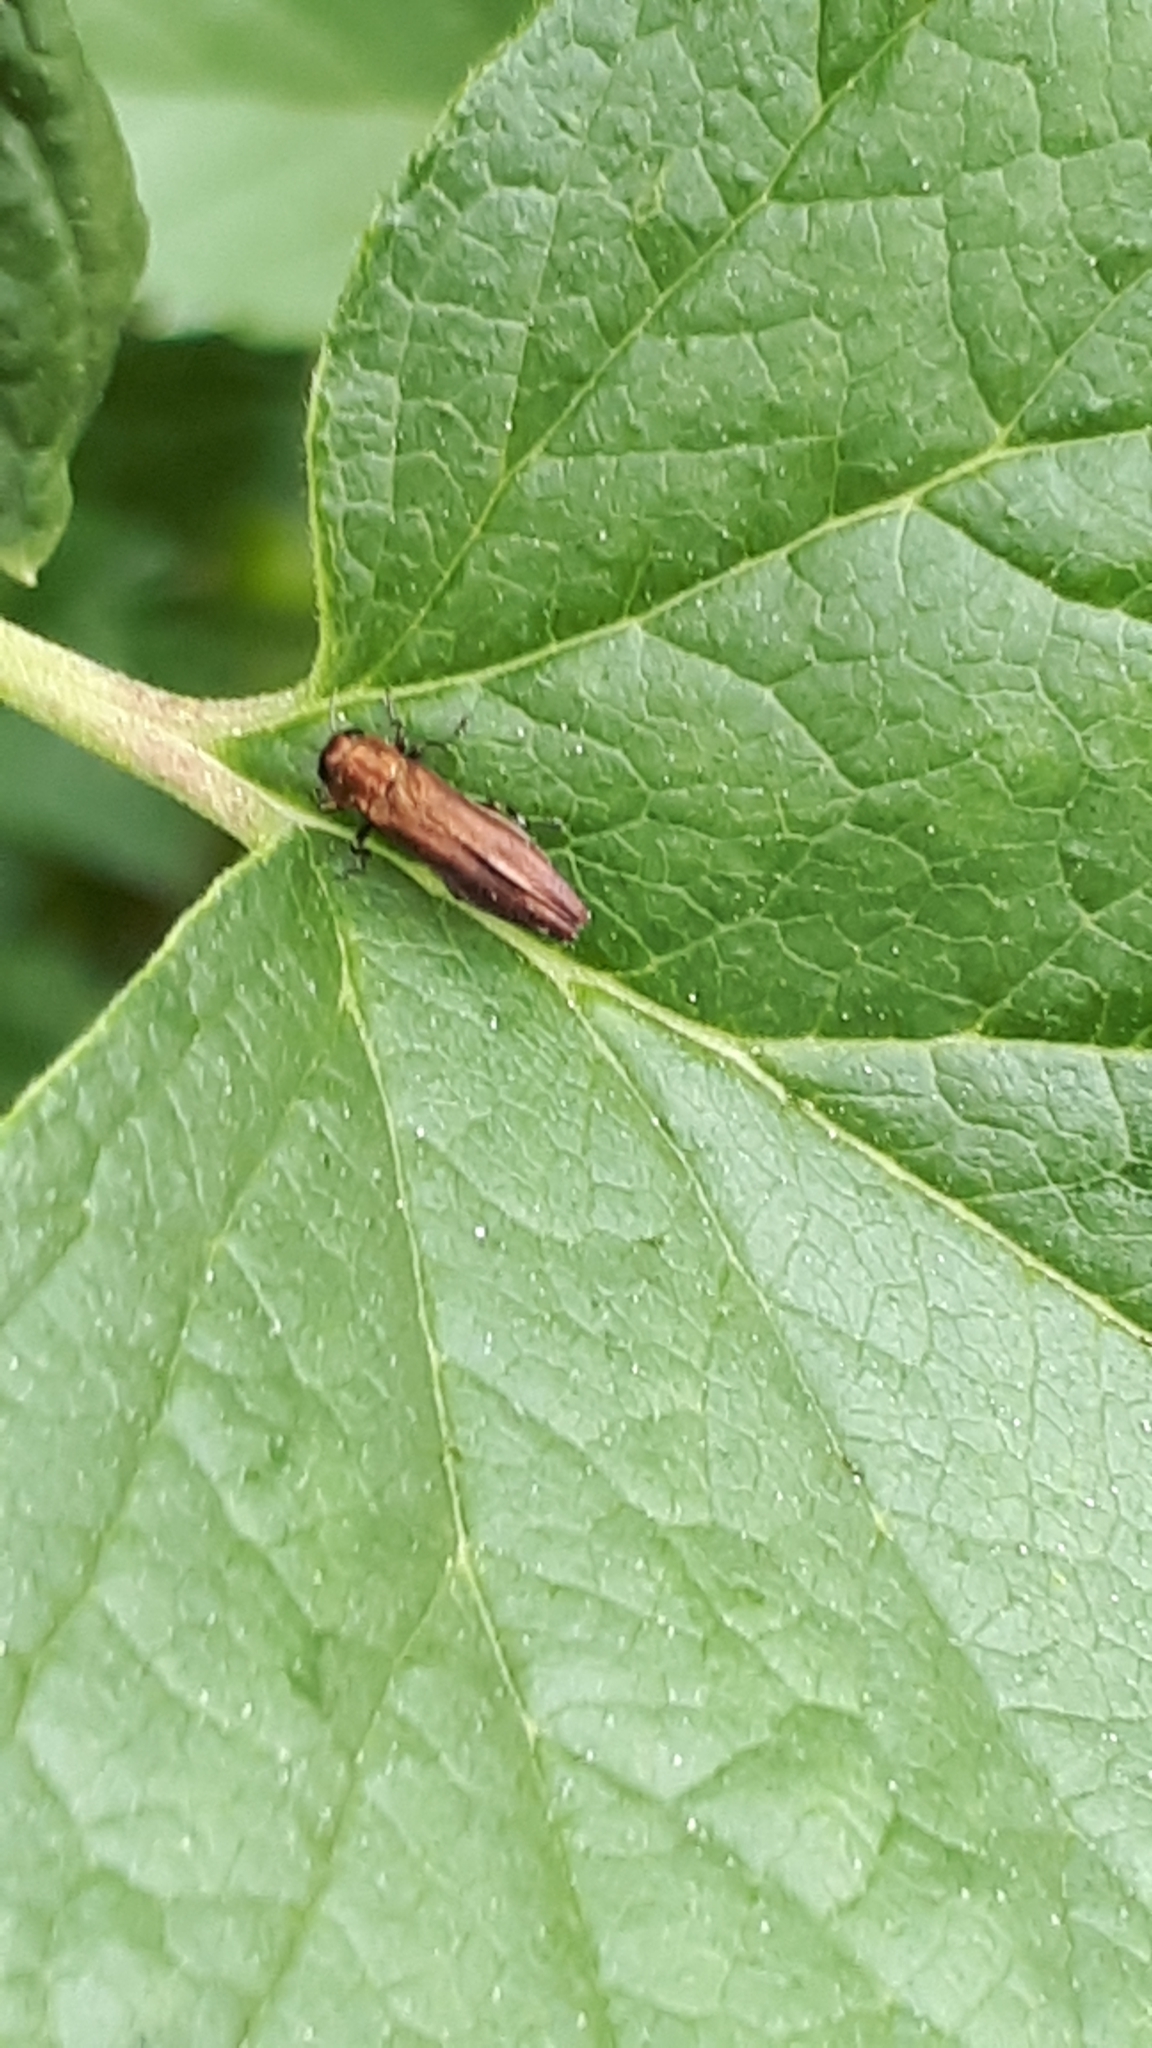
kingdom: Animalia
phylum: Arthropoda
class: Insecta
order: Coleoptera
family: Buprestidae
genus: Agrilus
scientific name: Agrilus ribesi
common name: Currant stem girdler
